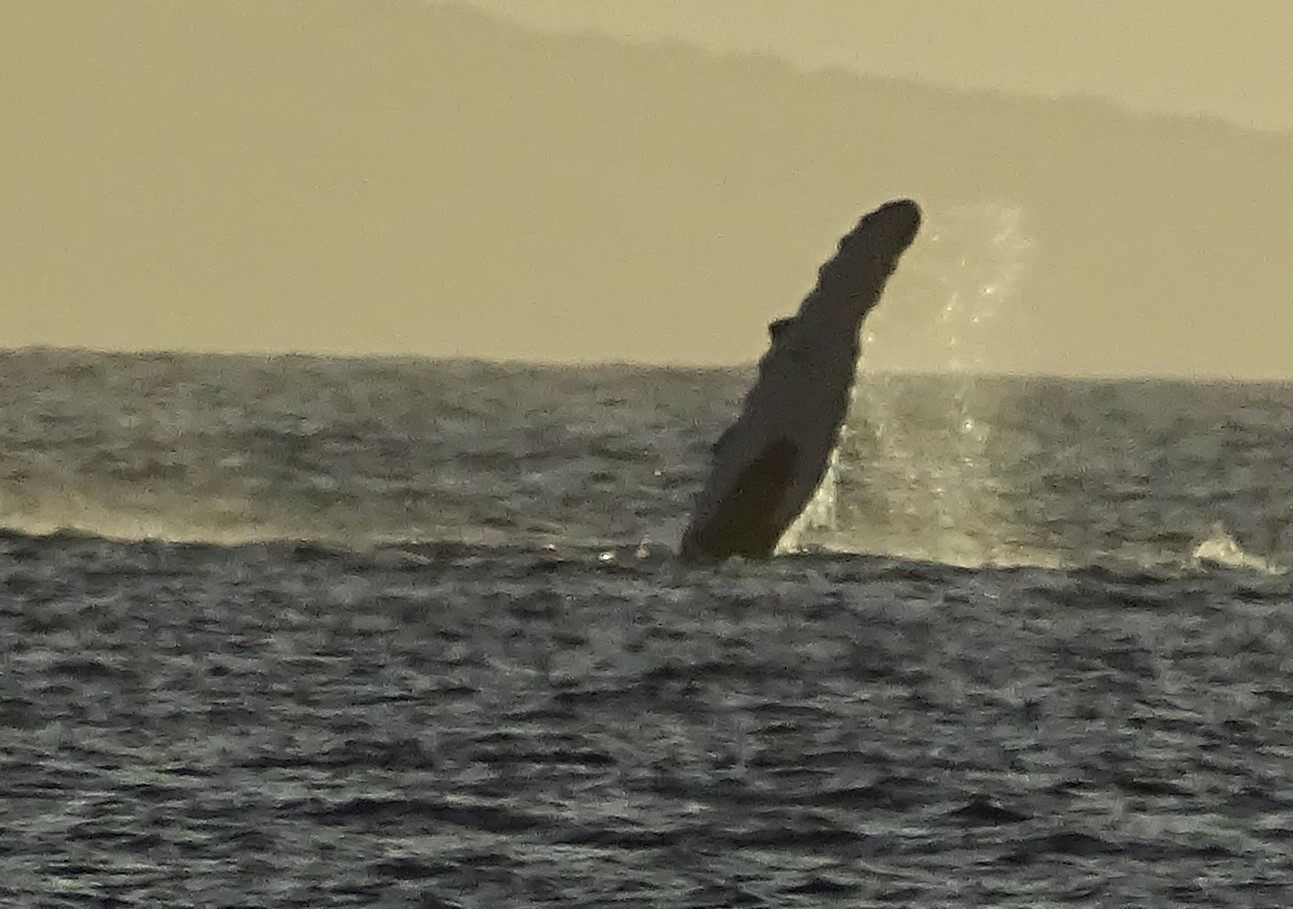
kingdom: Animalia
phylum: Chordata
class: Mammalia
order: Cetacea
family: Balaenopteridae
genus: Megaptera
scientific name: Megaptera novaeangliae
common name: Humpback whale
